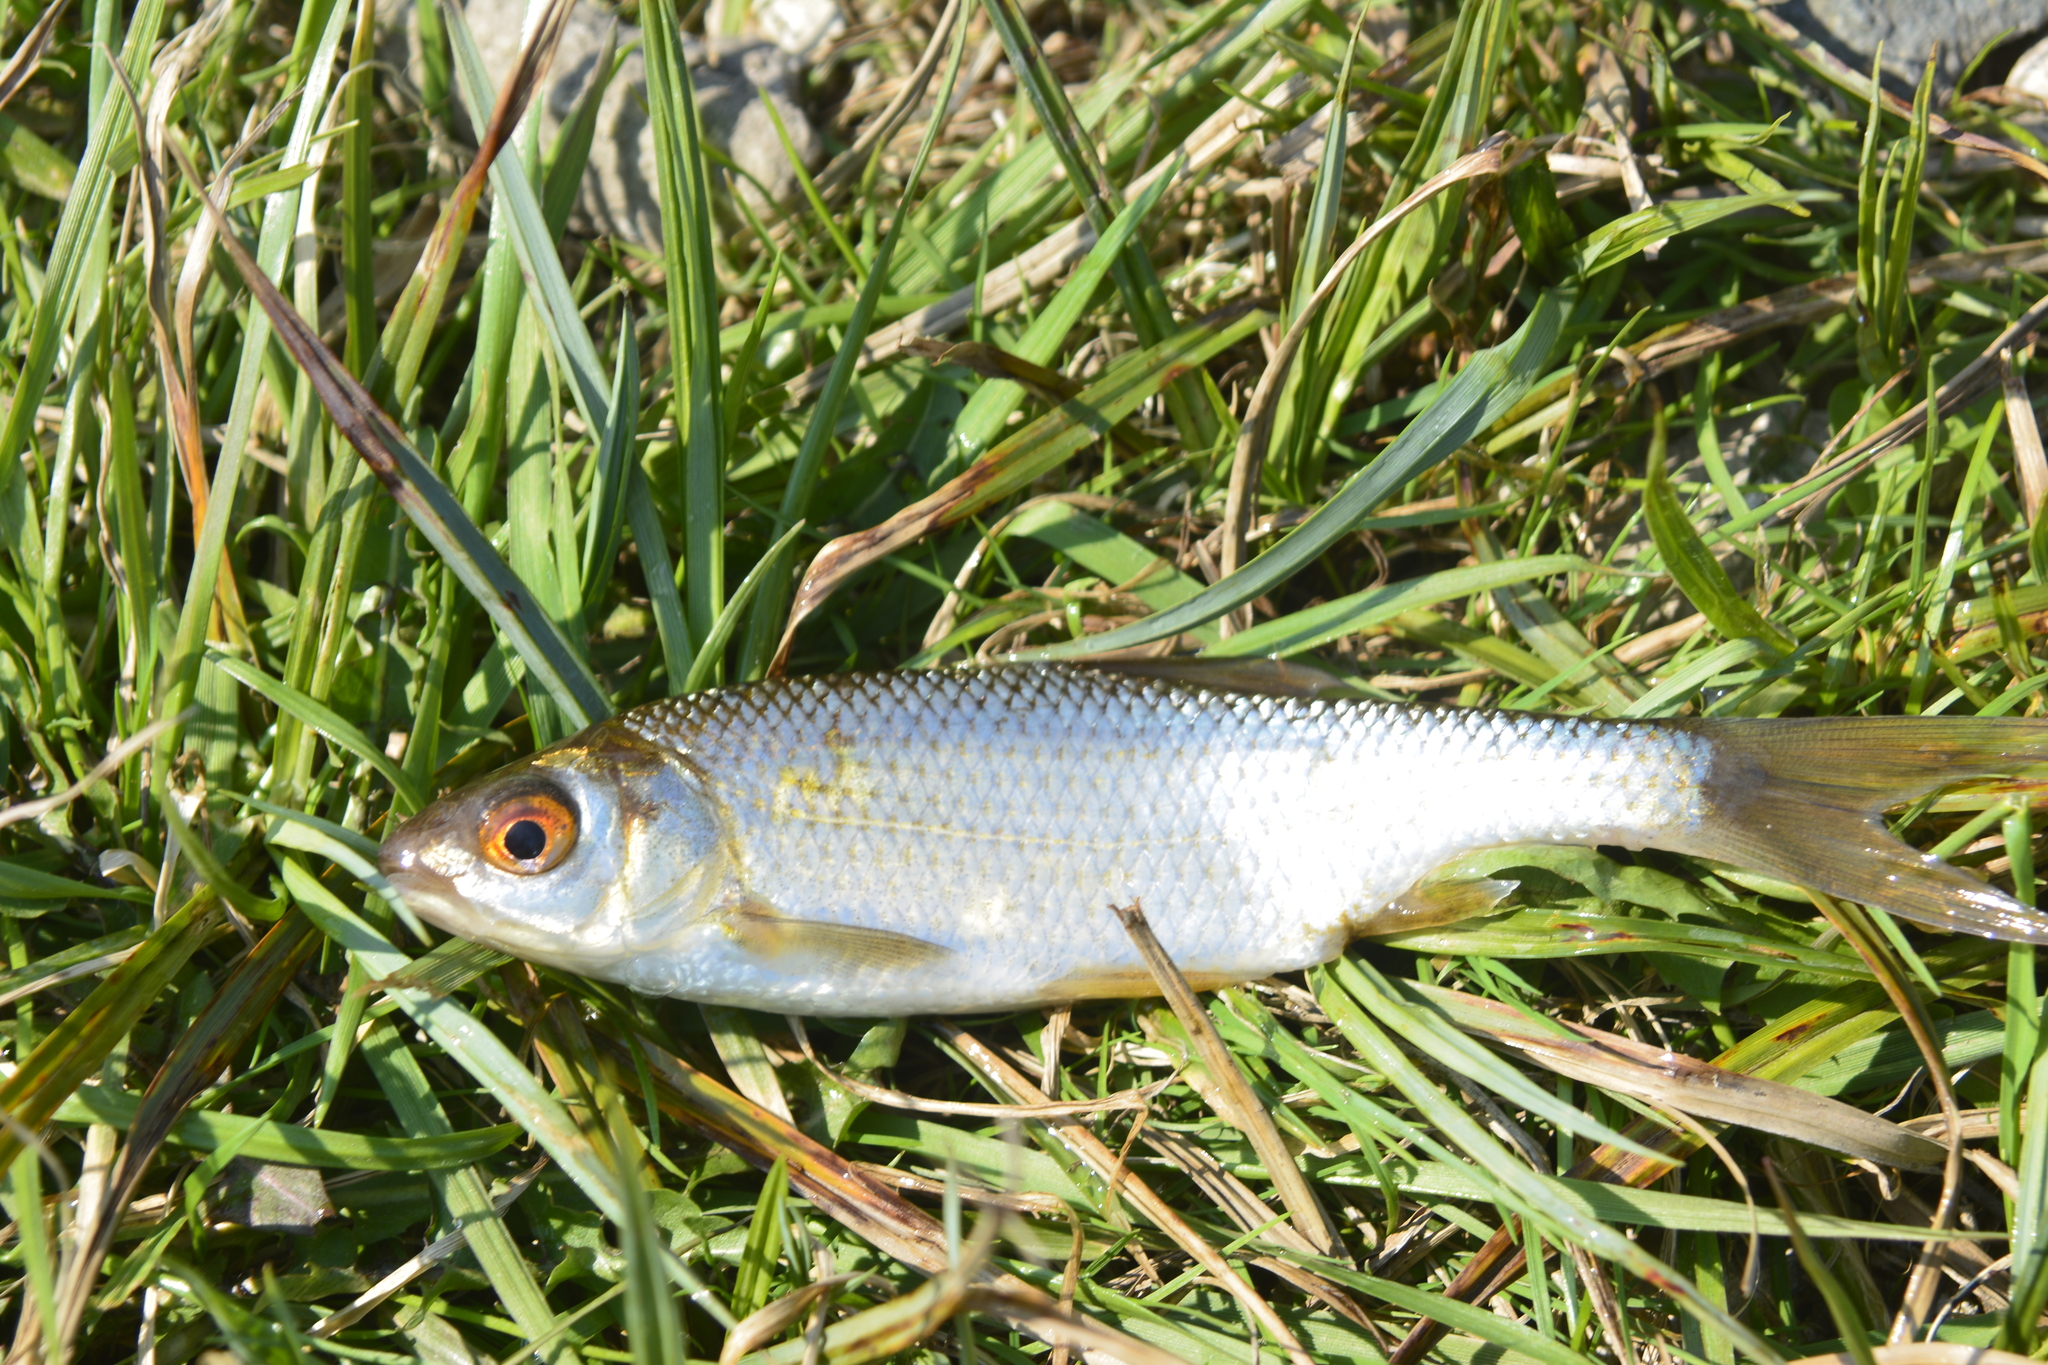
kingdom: Animalia
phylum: Chordata
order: Cypriniformes
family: Cyprinidae
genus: Rutilus
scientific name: Rutilus rutilus
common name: Roach
